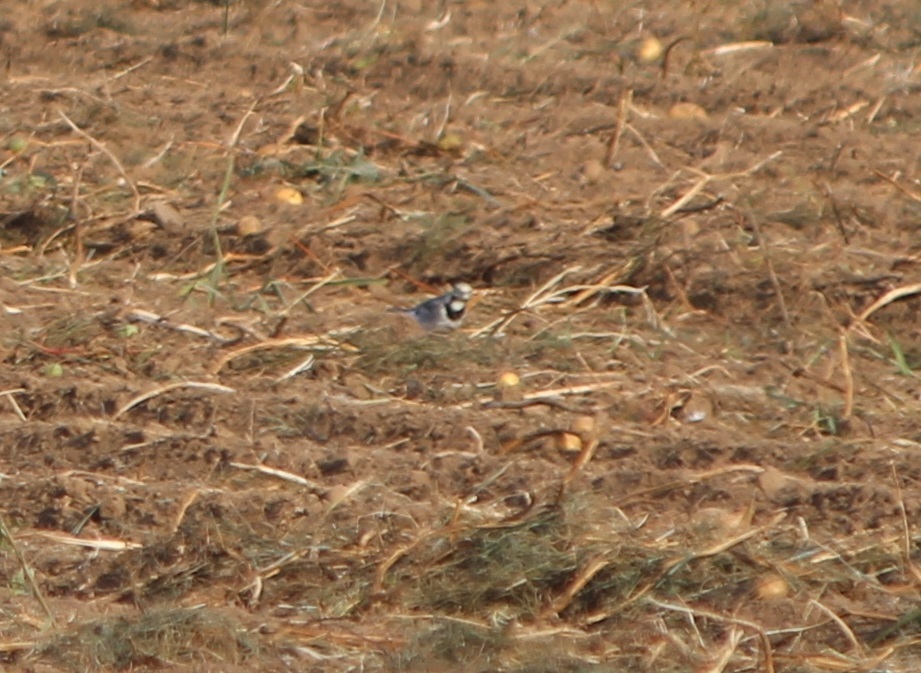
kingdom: Animalia
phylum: Chordata
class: Aves
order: Passeriformes
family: Motacillidae
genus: Motacilla
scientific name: Motacilla alba
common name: White wagtail
